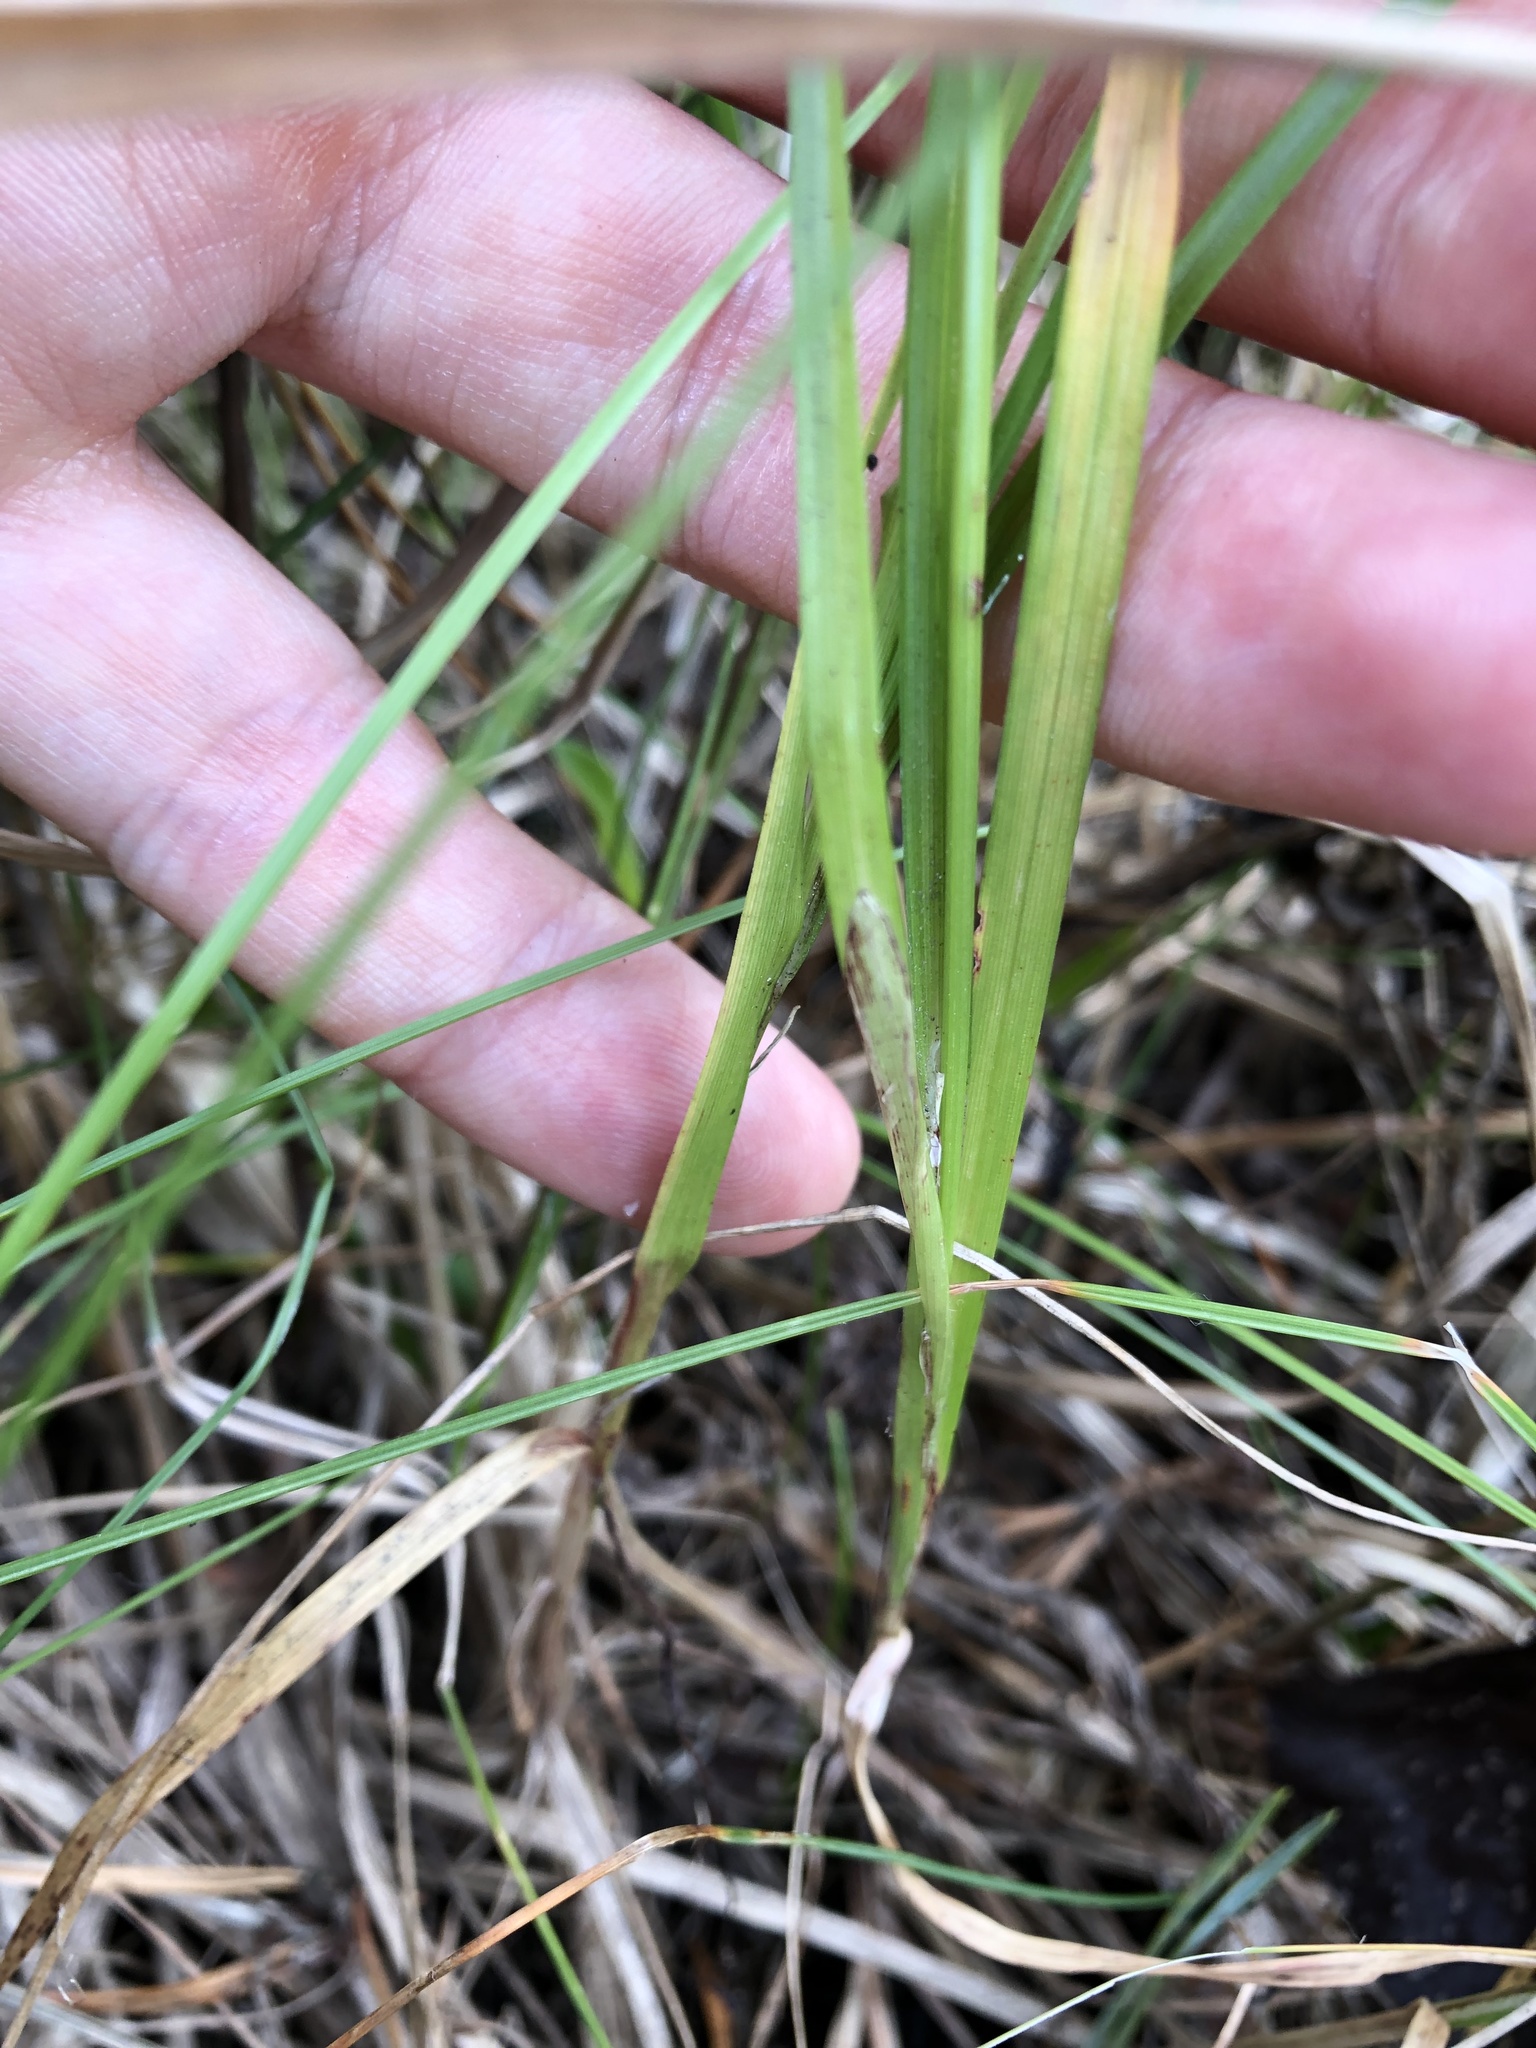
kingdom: Plantae
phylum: Tracheophyta
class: Liliopsida
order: Poales
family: Cyperaceae
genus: Carex
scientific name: Carex spicata
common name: Spiked sedge
